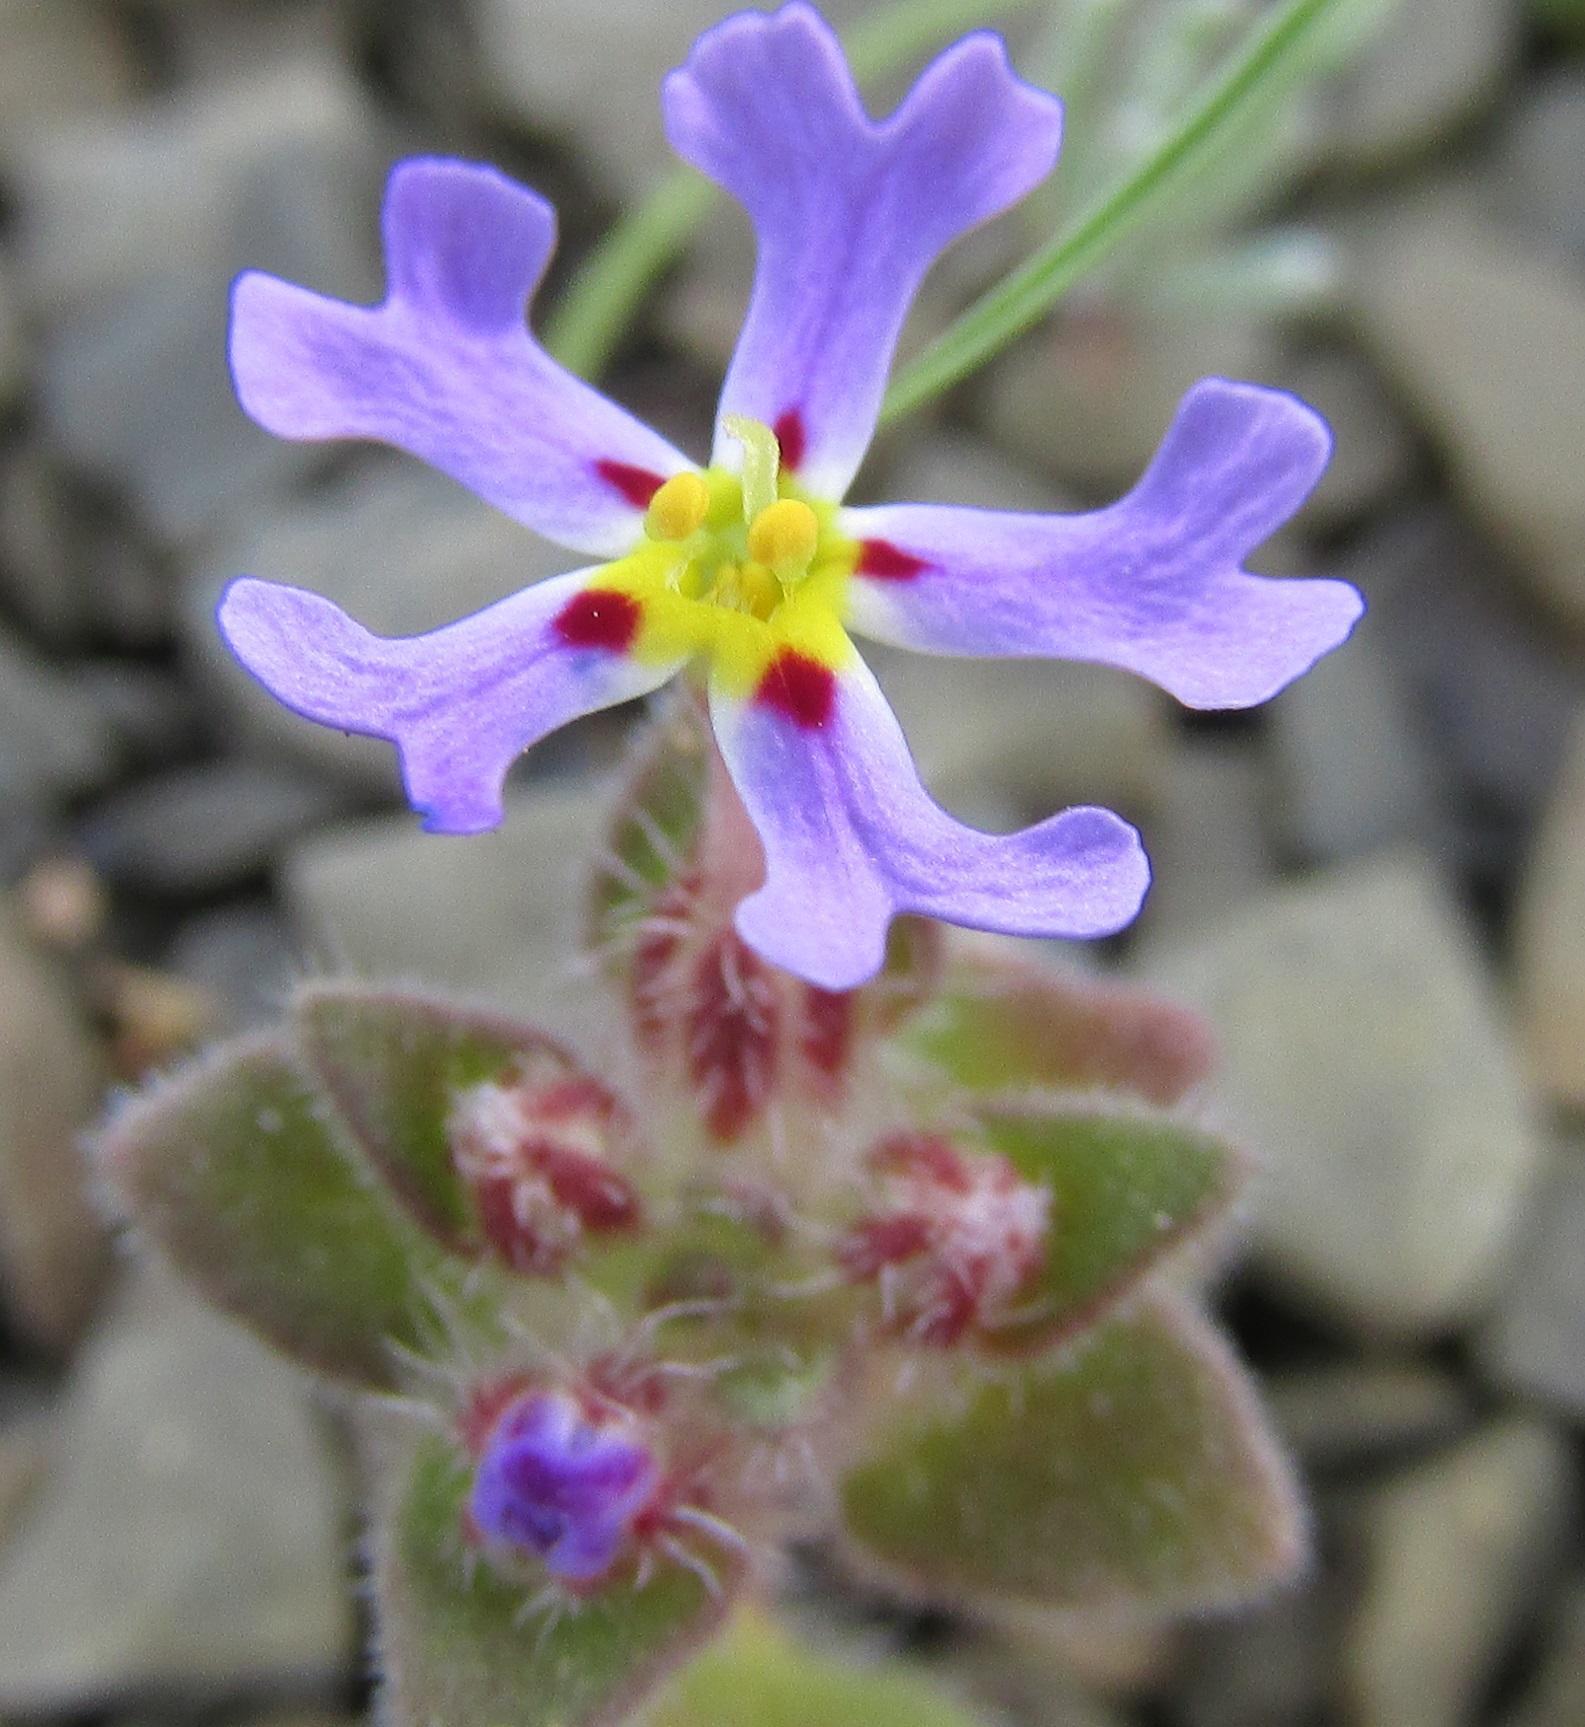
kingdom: Plantae
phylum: Tracheophyta
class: Magnoliopsida
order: Lamiales
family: Scrophulariaceae
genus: Zaluzianskya
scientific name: Zaluzianskya minima
